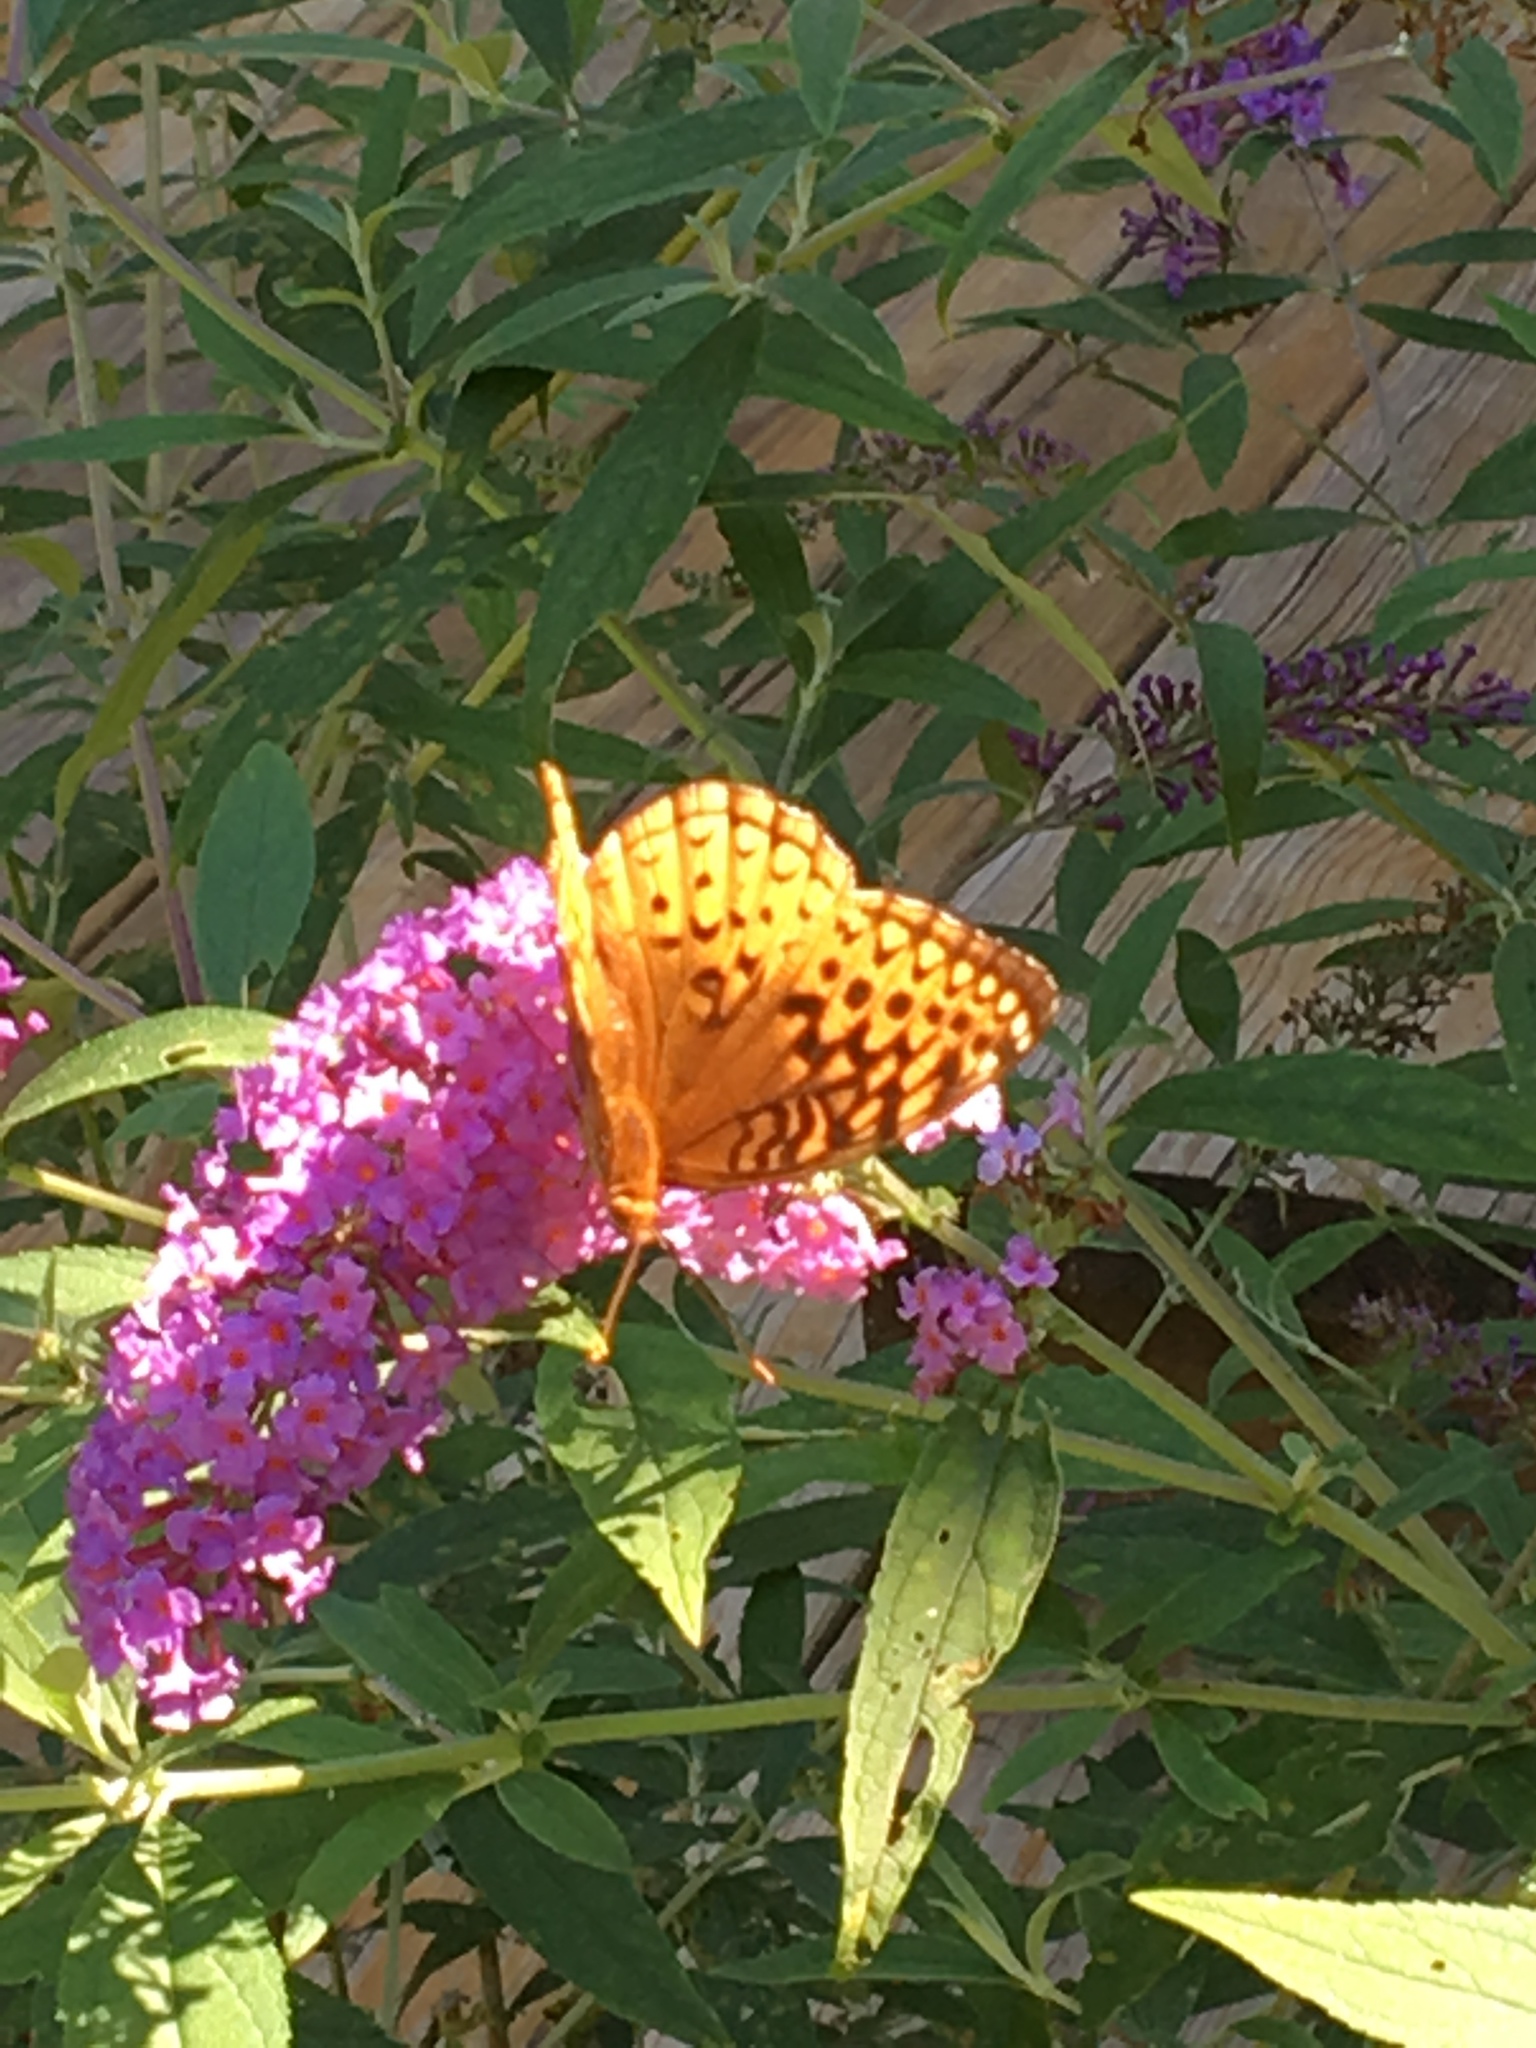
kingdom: Animalia
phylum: Arthropoda
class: Insecta
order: Lepidoptera
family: Nymphalidae
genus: Speyeria
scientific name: Speyeria cybele
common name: Great spangled fritillary
